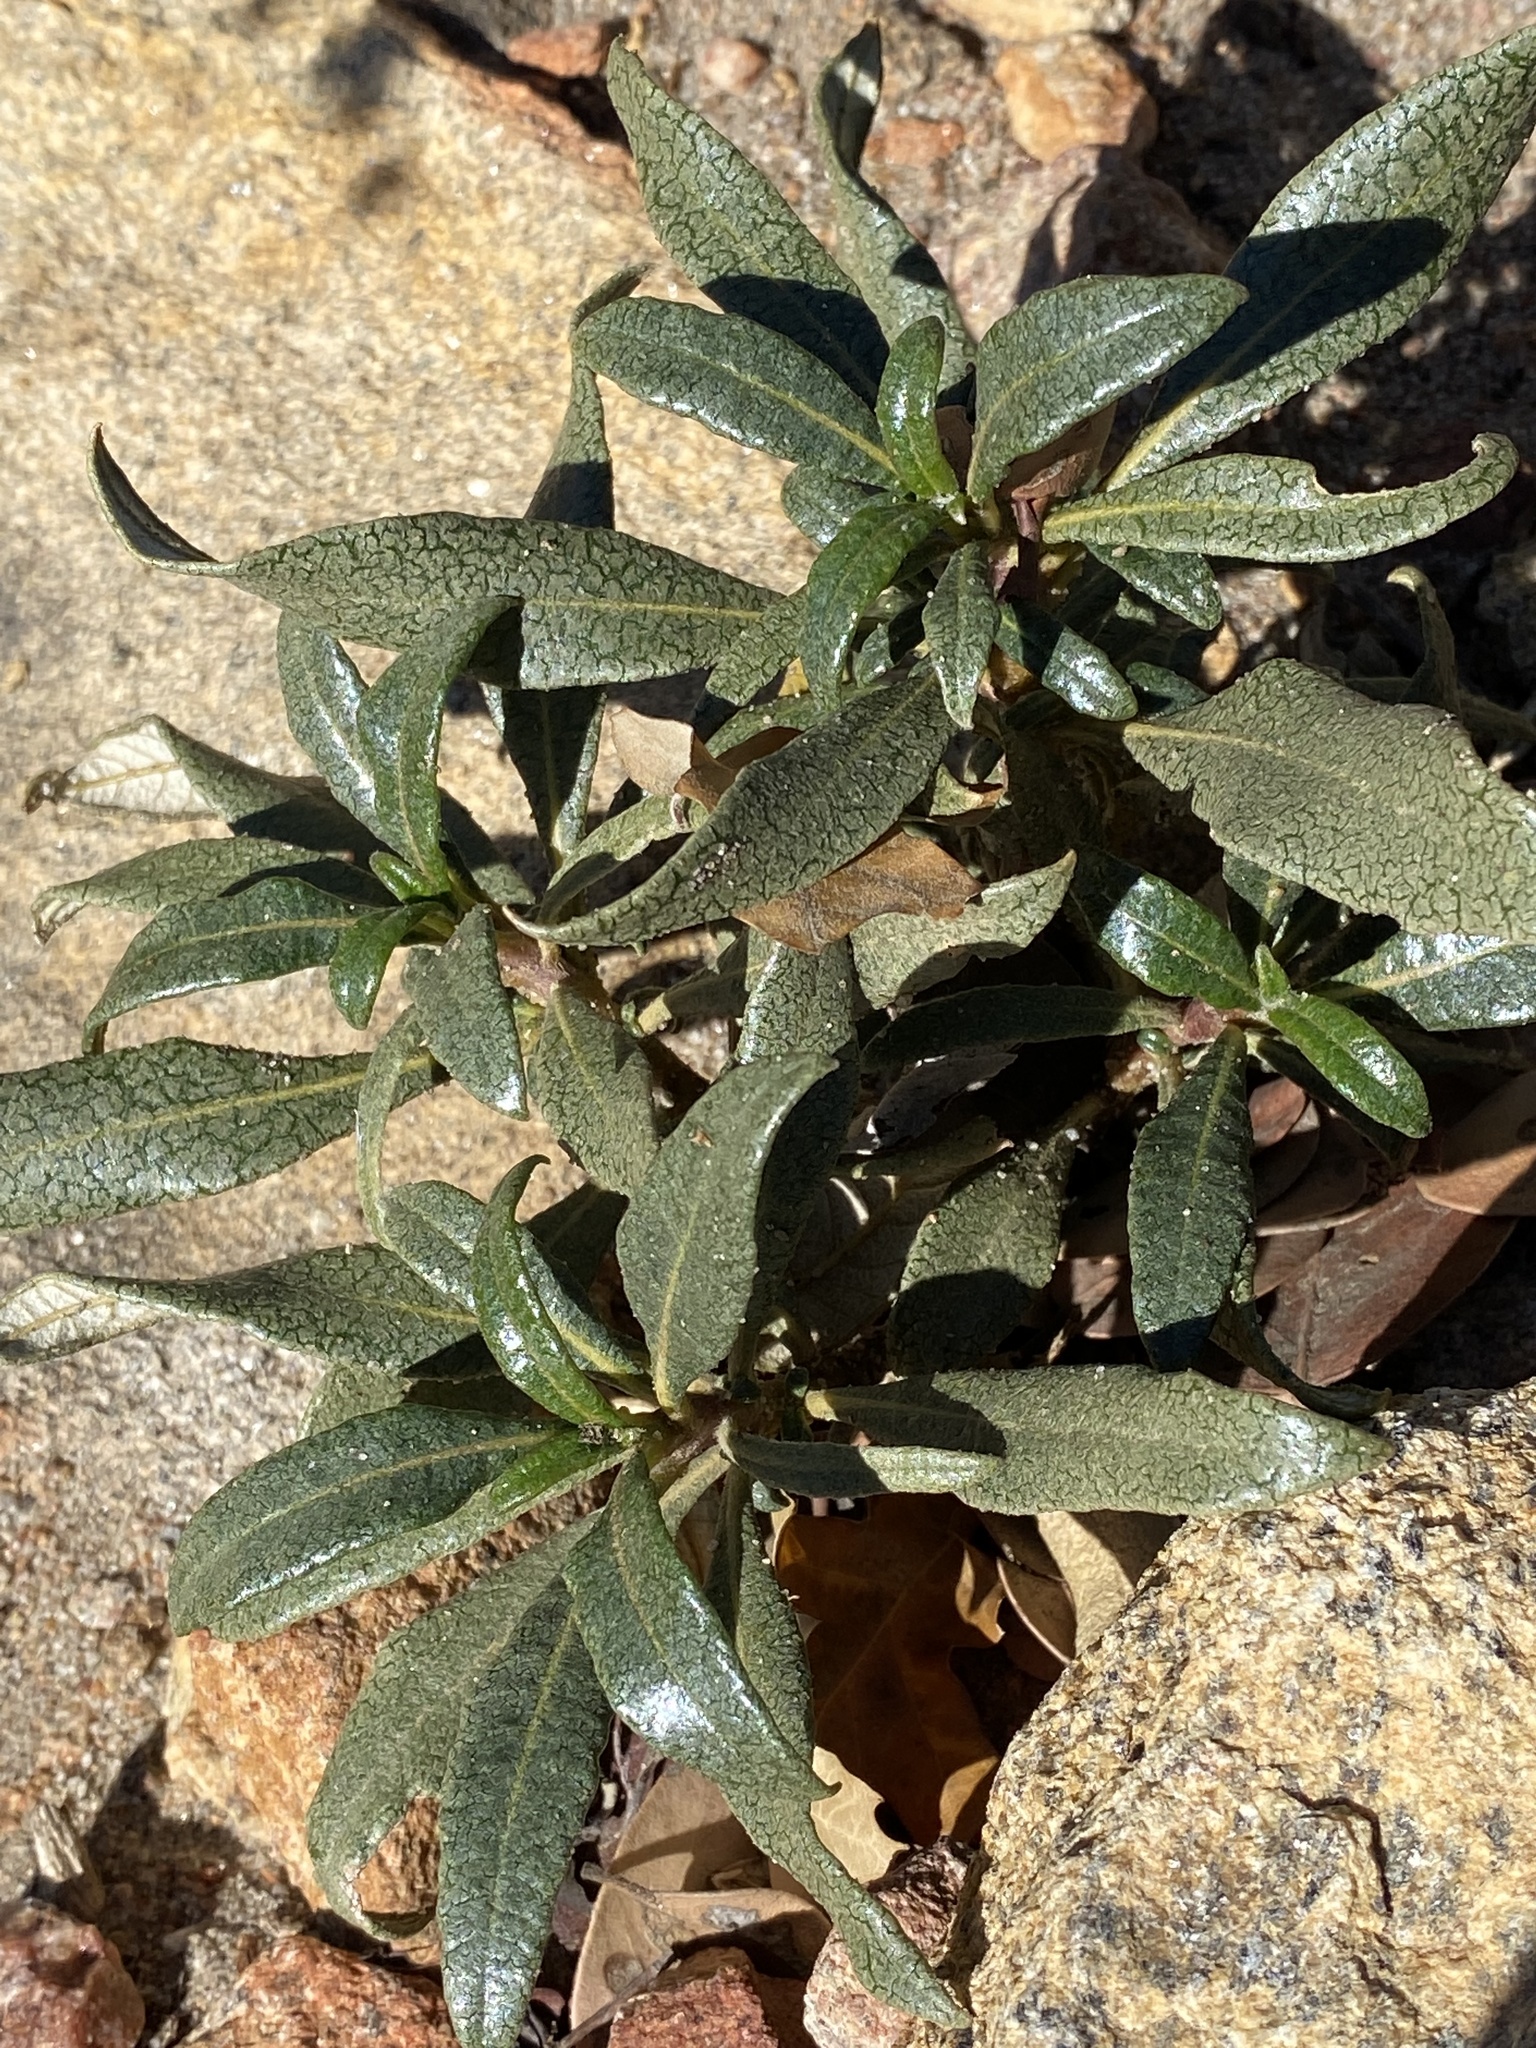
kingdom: Plantae
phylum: Tracheophyta
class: Magnoliopsida
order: Boraginales
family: Namaceae
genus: Eriodictyon
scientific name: Eriodictyon trichocalyx
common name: Hairy yerba-santa
